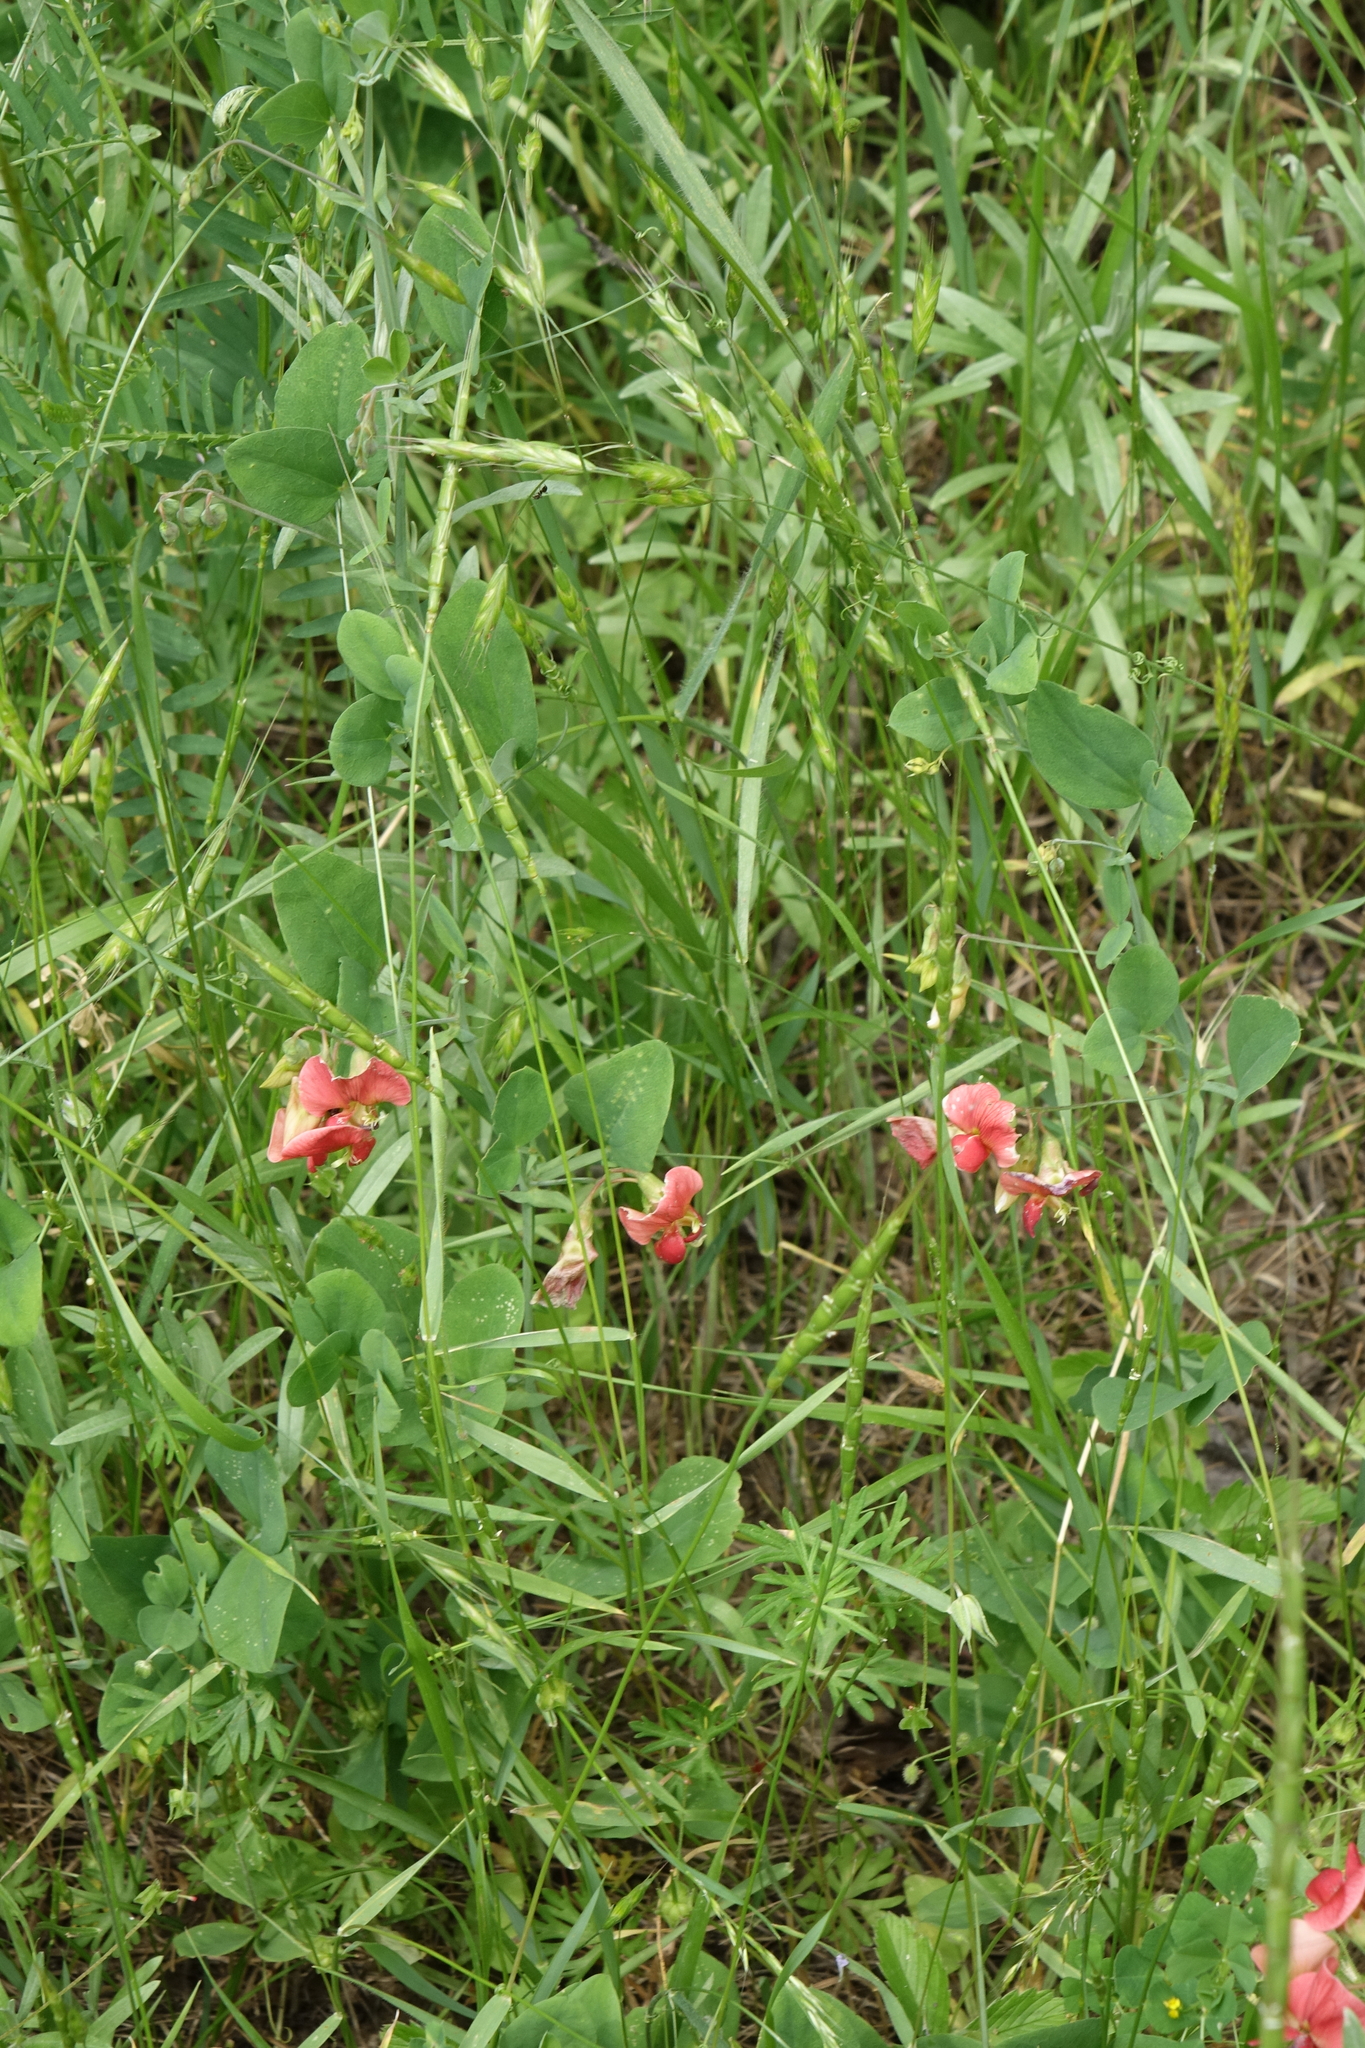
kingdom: Plantae
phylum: Tracheophyta
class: Magnoliopsida
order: Fabales
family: Fabaceae
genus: Lathyrus
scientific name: Lathyrus miniatus
